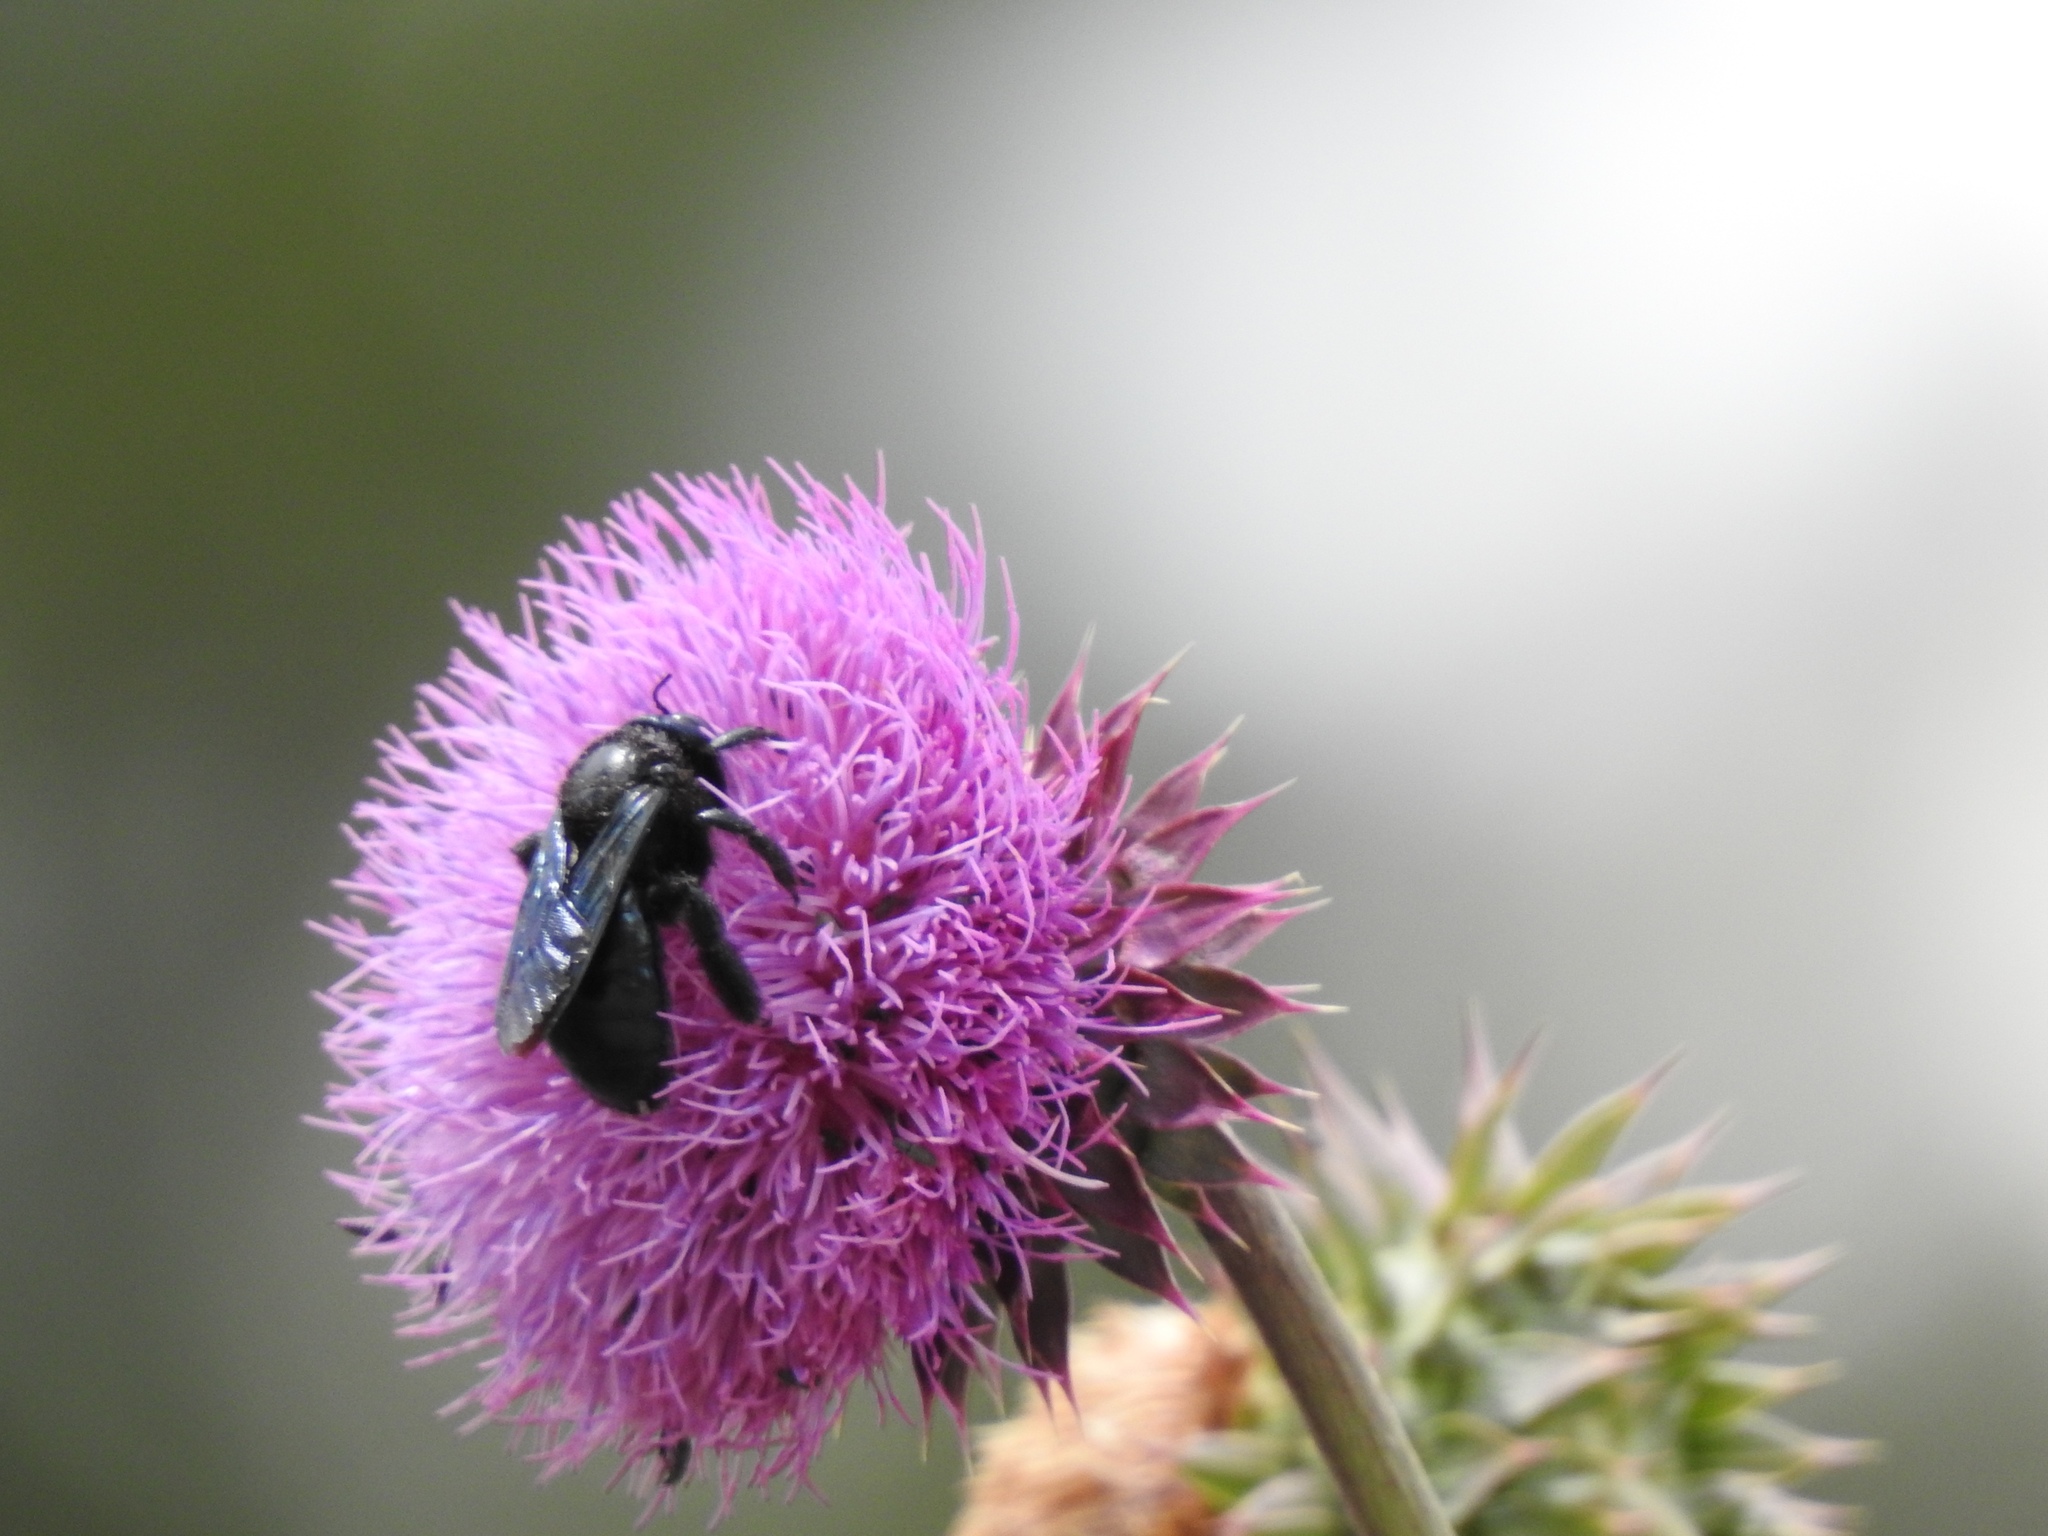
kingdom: Animalia
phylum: Arthropoda
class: Insecta
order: Hymenoptera
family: Apidae
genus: Xylocopa
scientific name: Xylocopa californica
